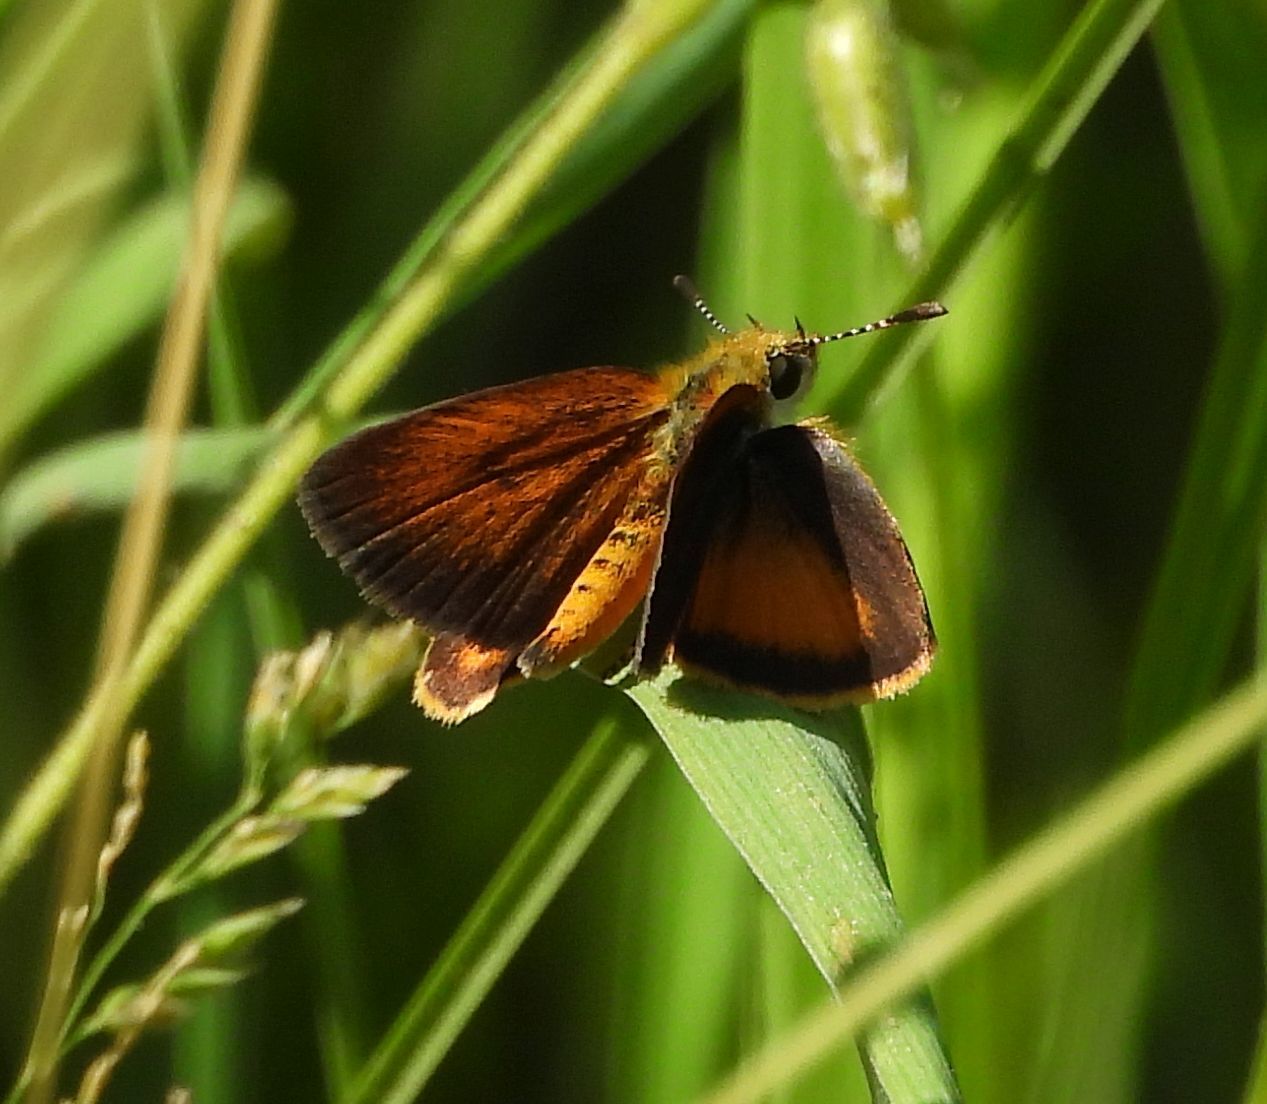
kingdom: Animalia
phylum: Arthropoda
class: Insecta
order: Lepidoptera
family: Hesperiidae
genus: Ancyloxypha
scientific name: Ancyloxypha numitor
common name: Least skipper
